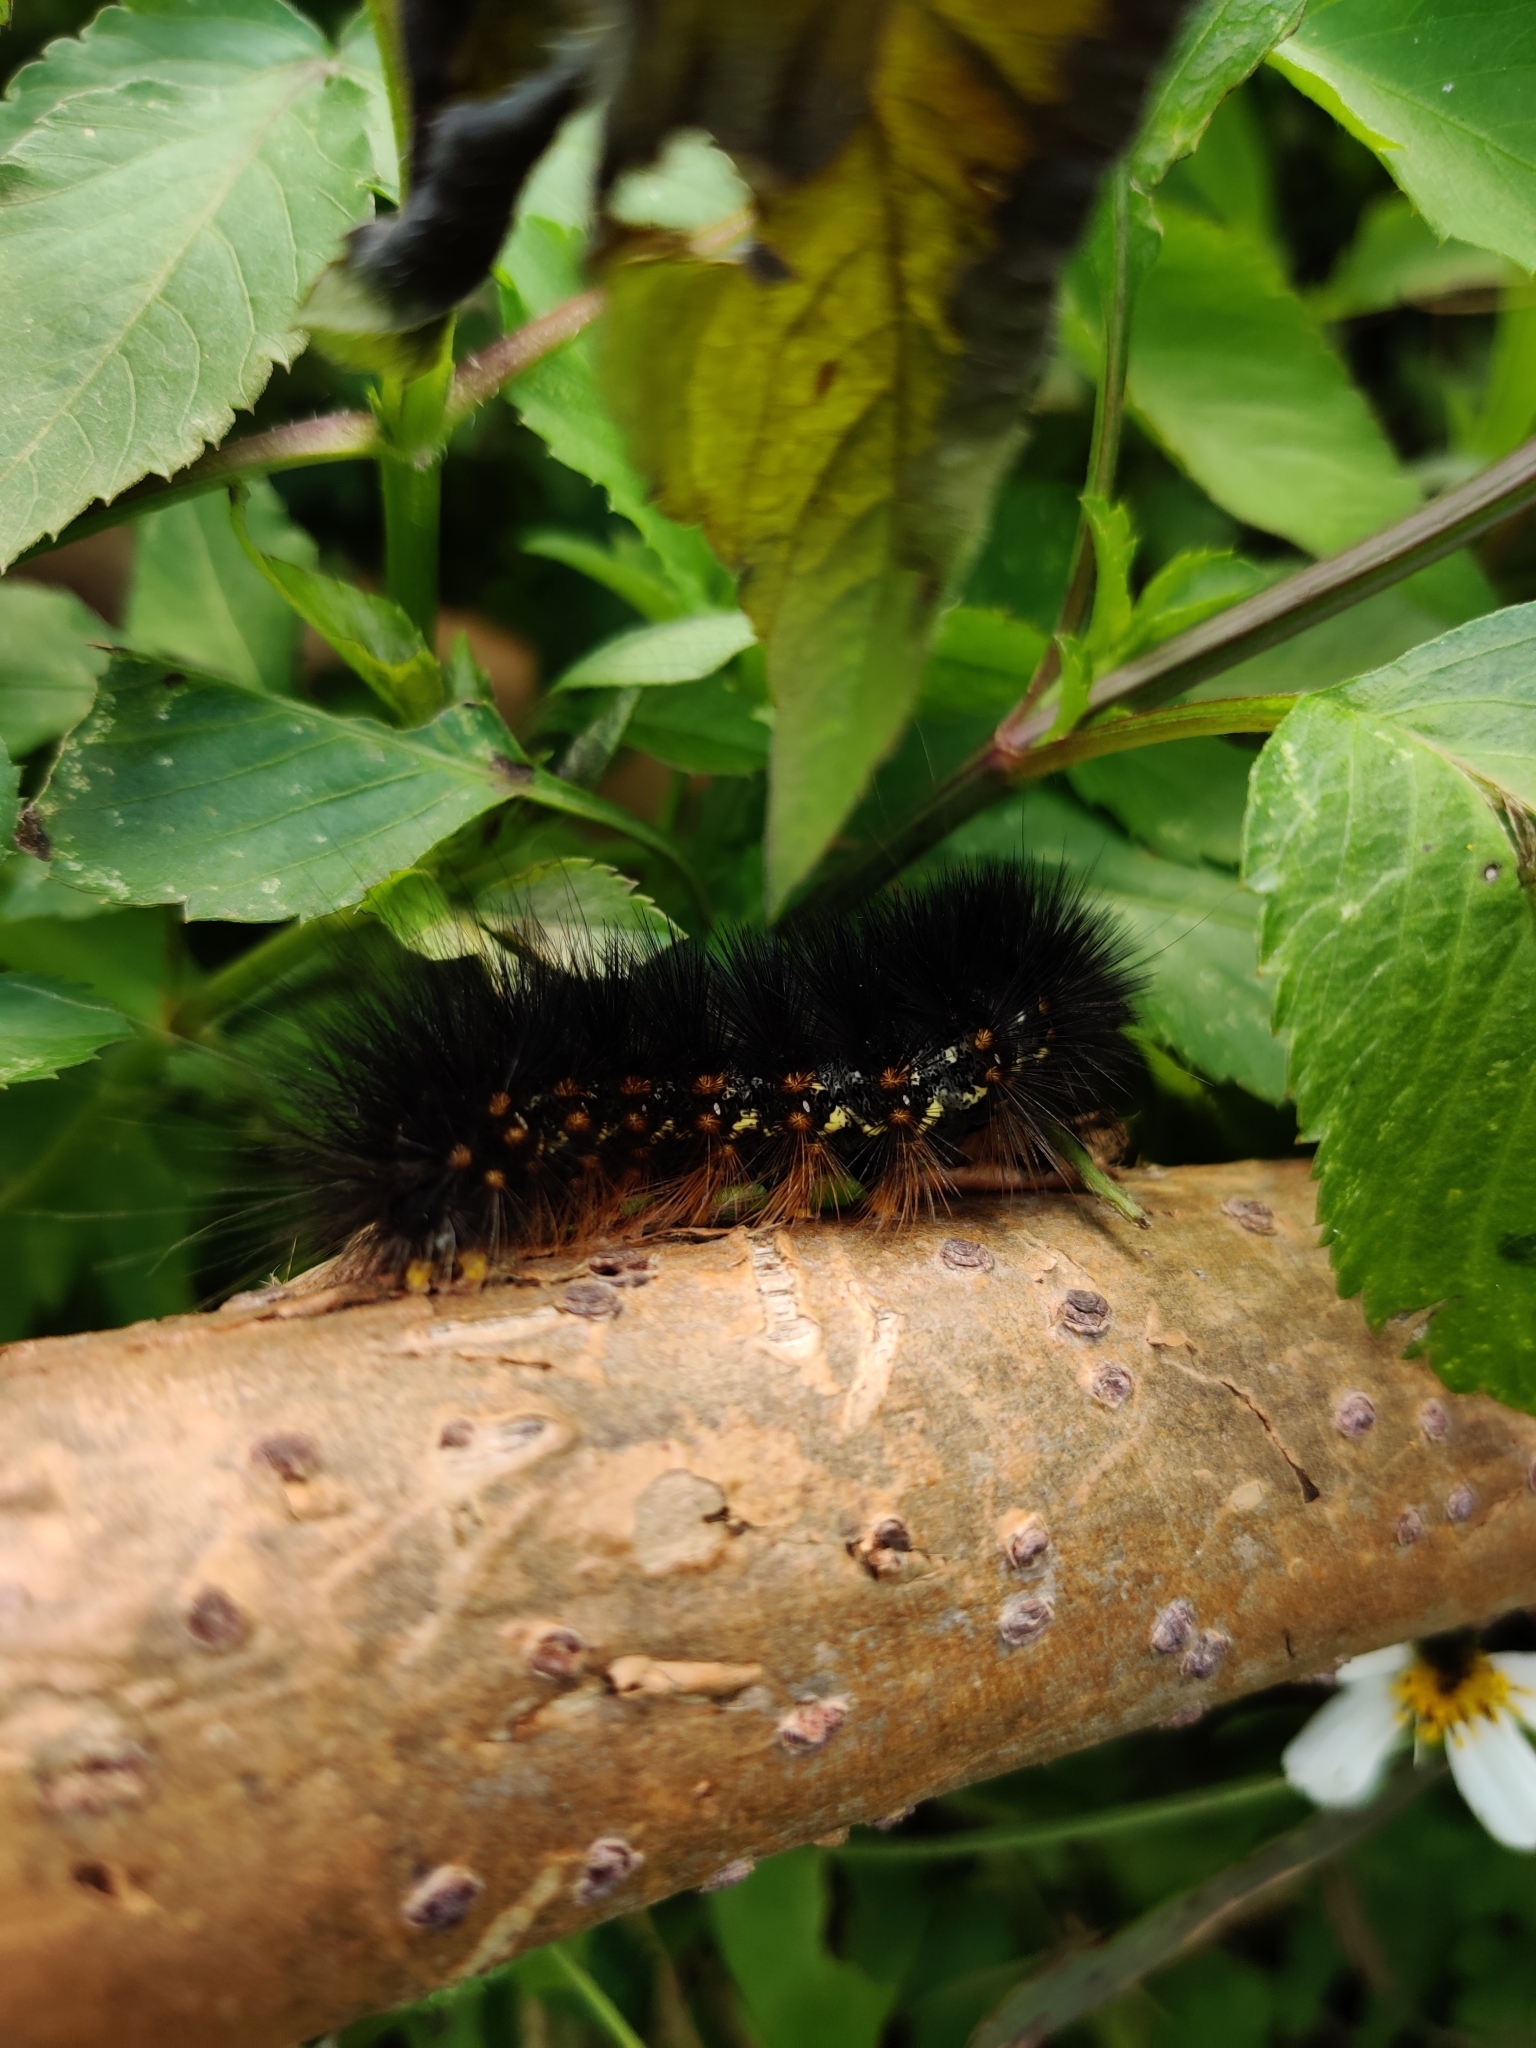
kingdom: Animalia
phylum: Arthropoda
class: Insecta
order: Lepidoptera
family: Erebidae
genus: Estigmene
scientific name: Estigmene acrea
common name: Salt marsh moth
